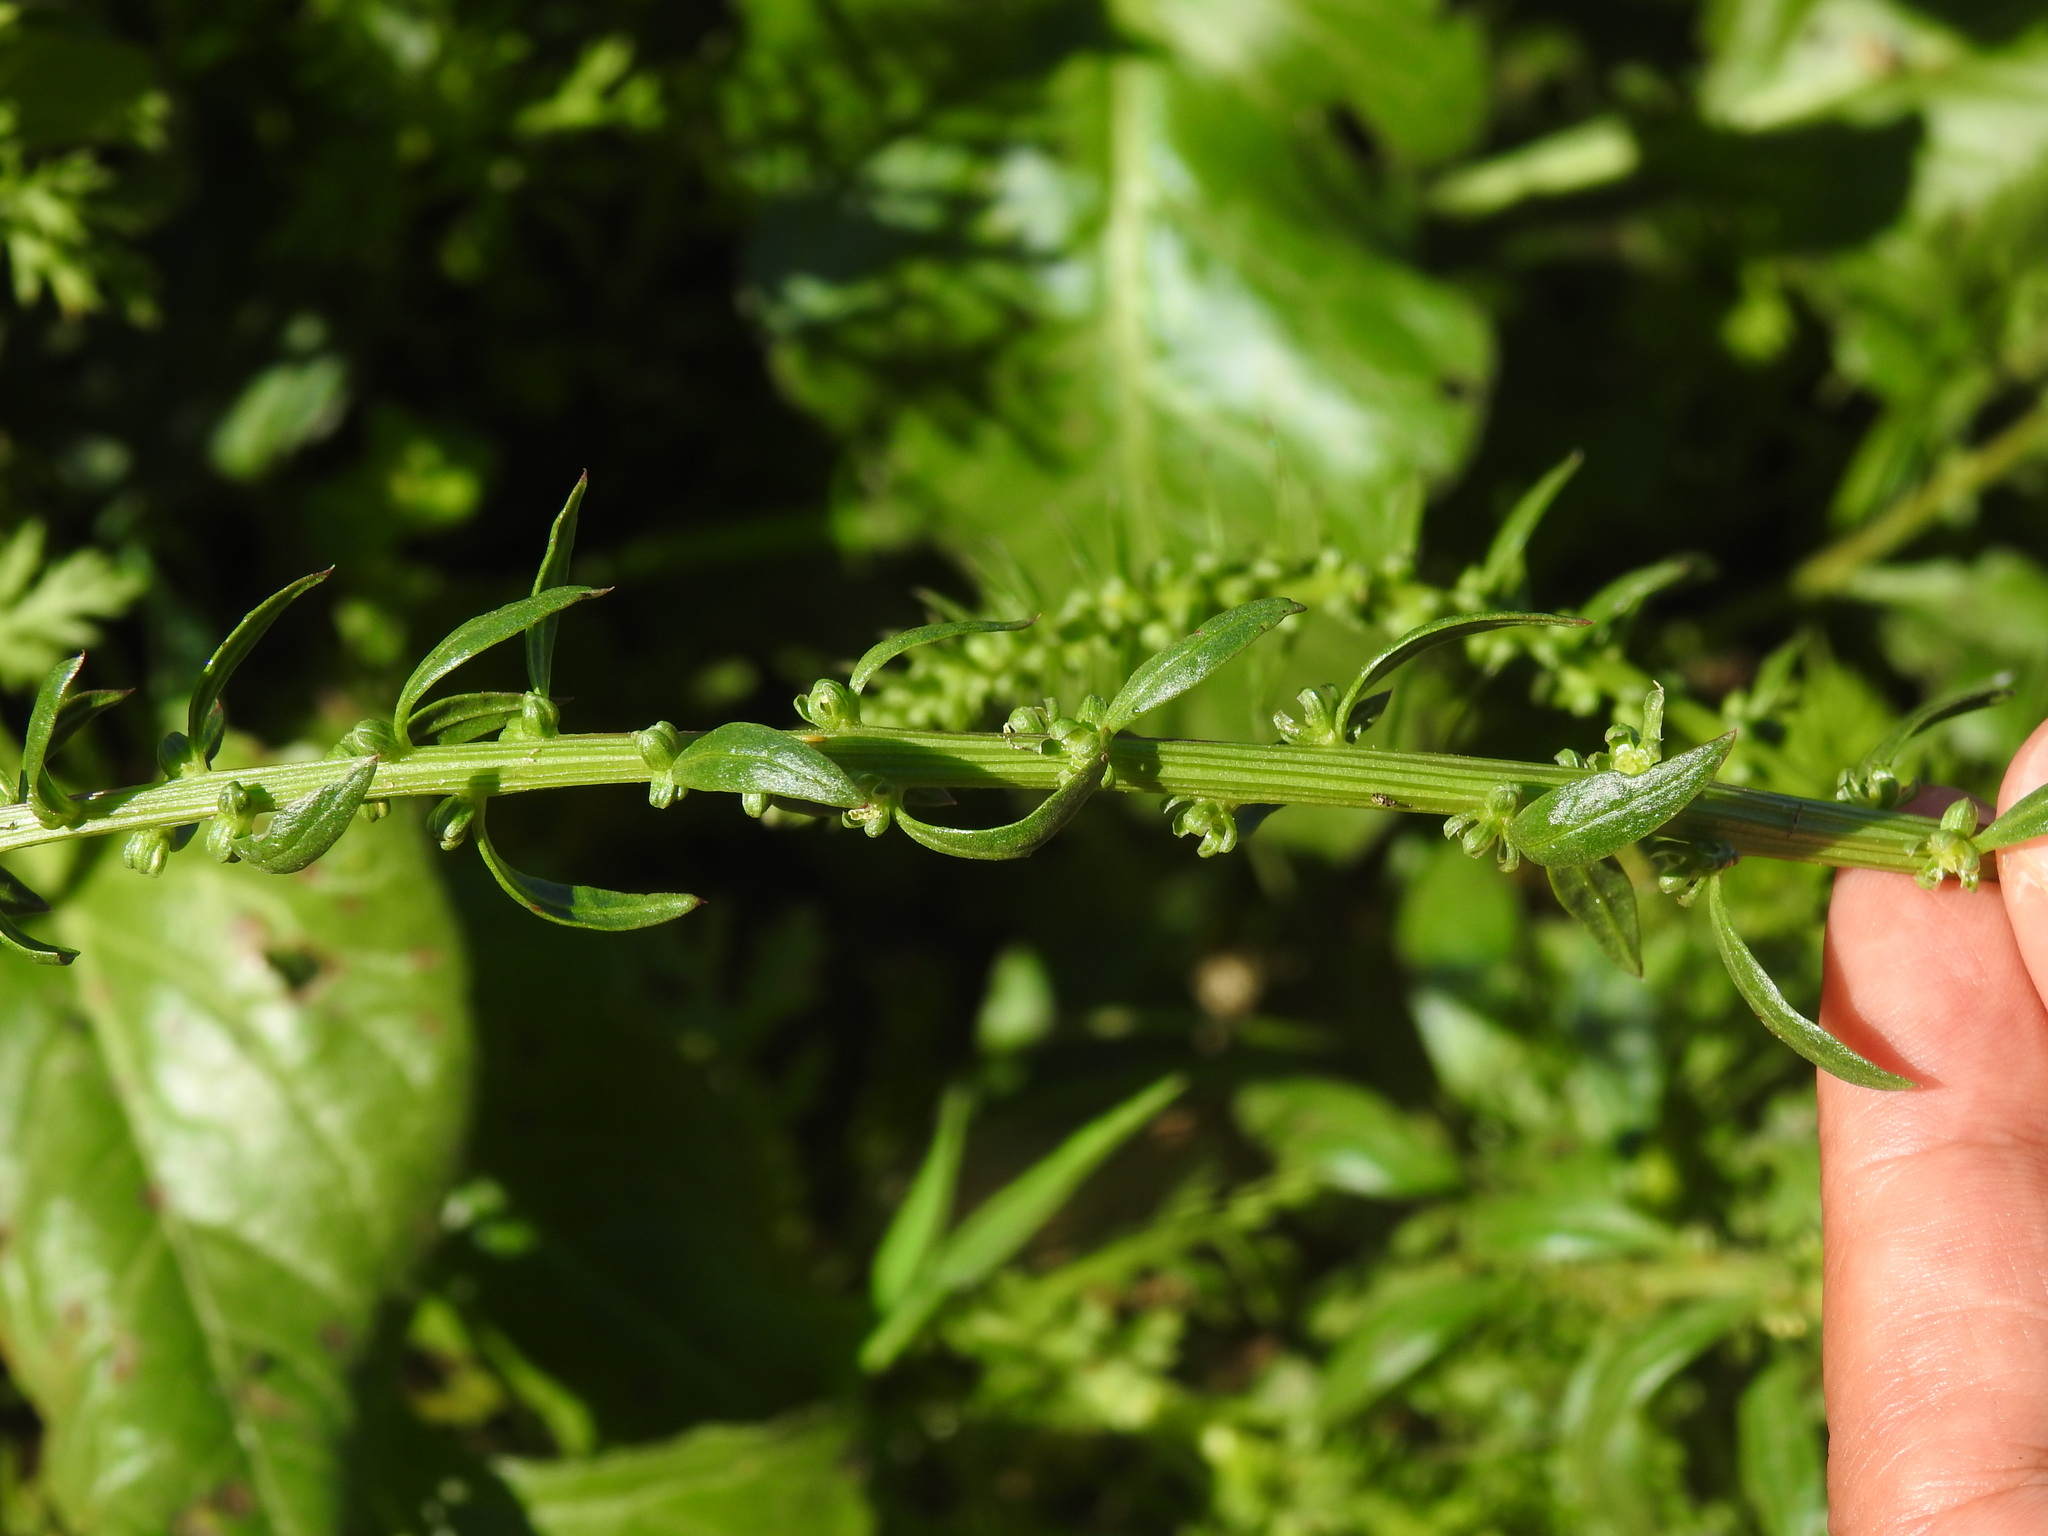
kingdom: Plantae
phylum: Tracheophyta
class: Magnoliopsida
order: Caryophyllales
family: Amaranthaceae
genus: Beta
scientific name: Beta macrocarpa
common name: Beet
